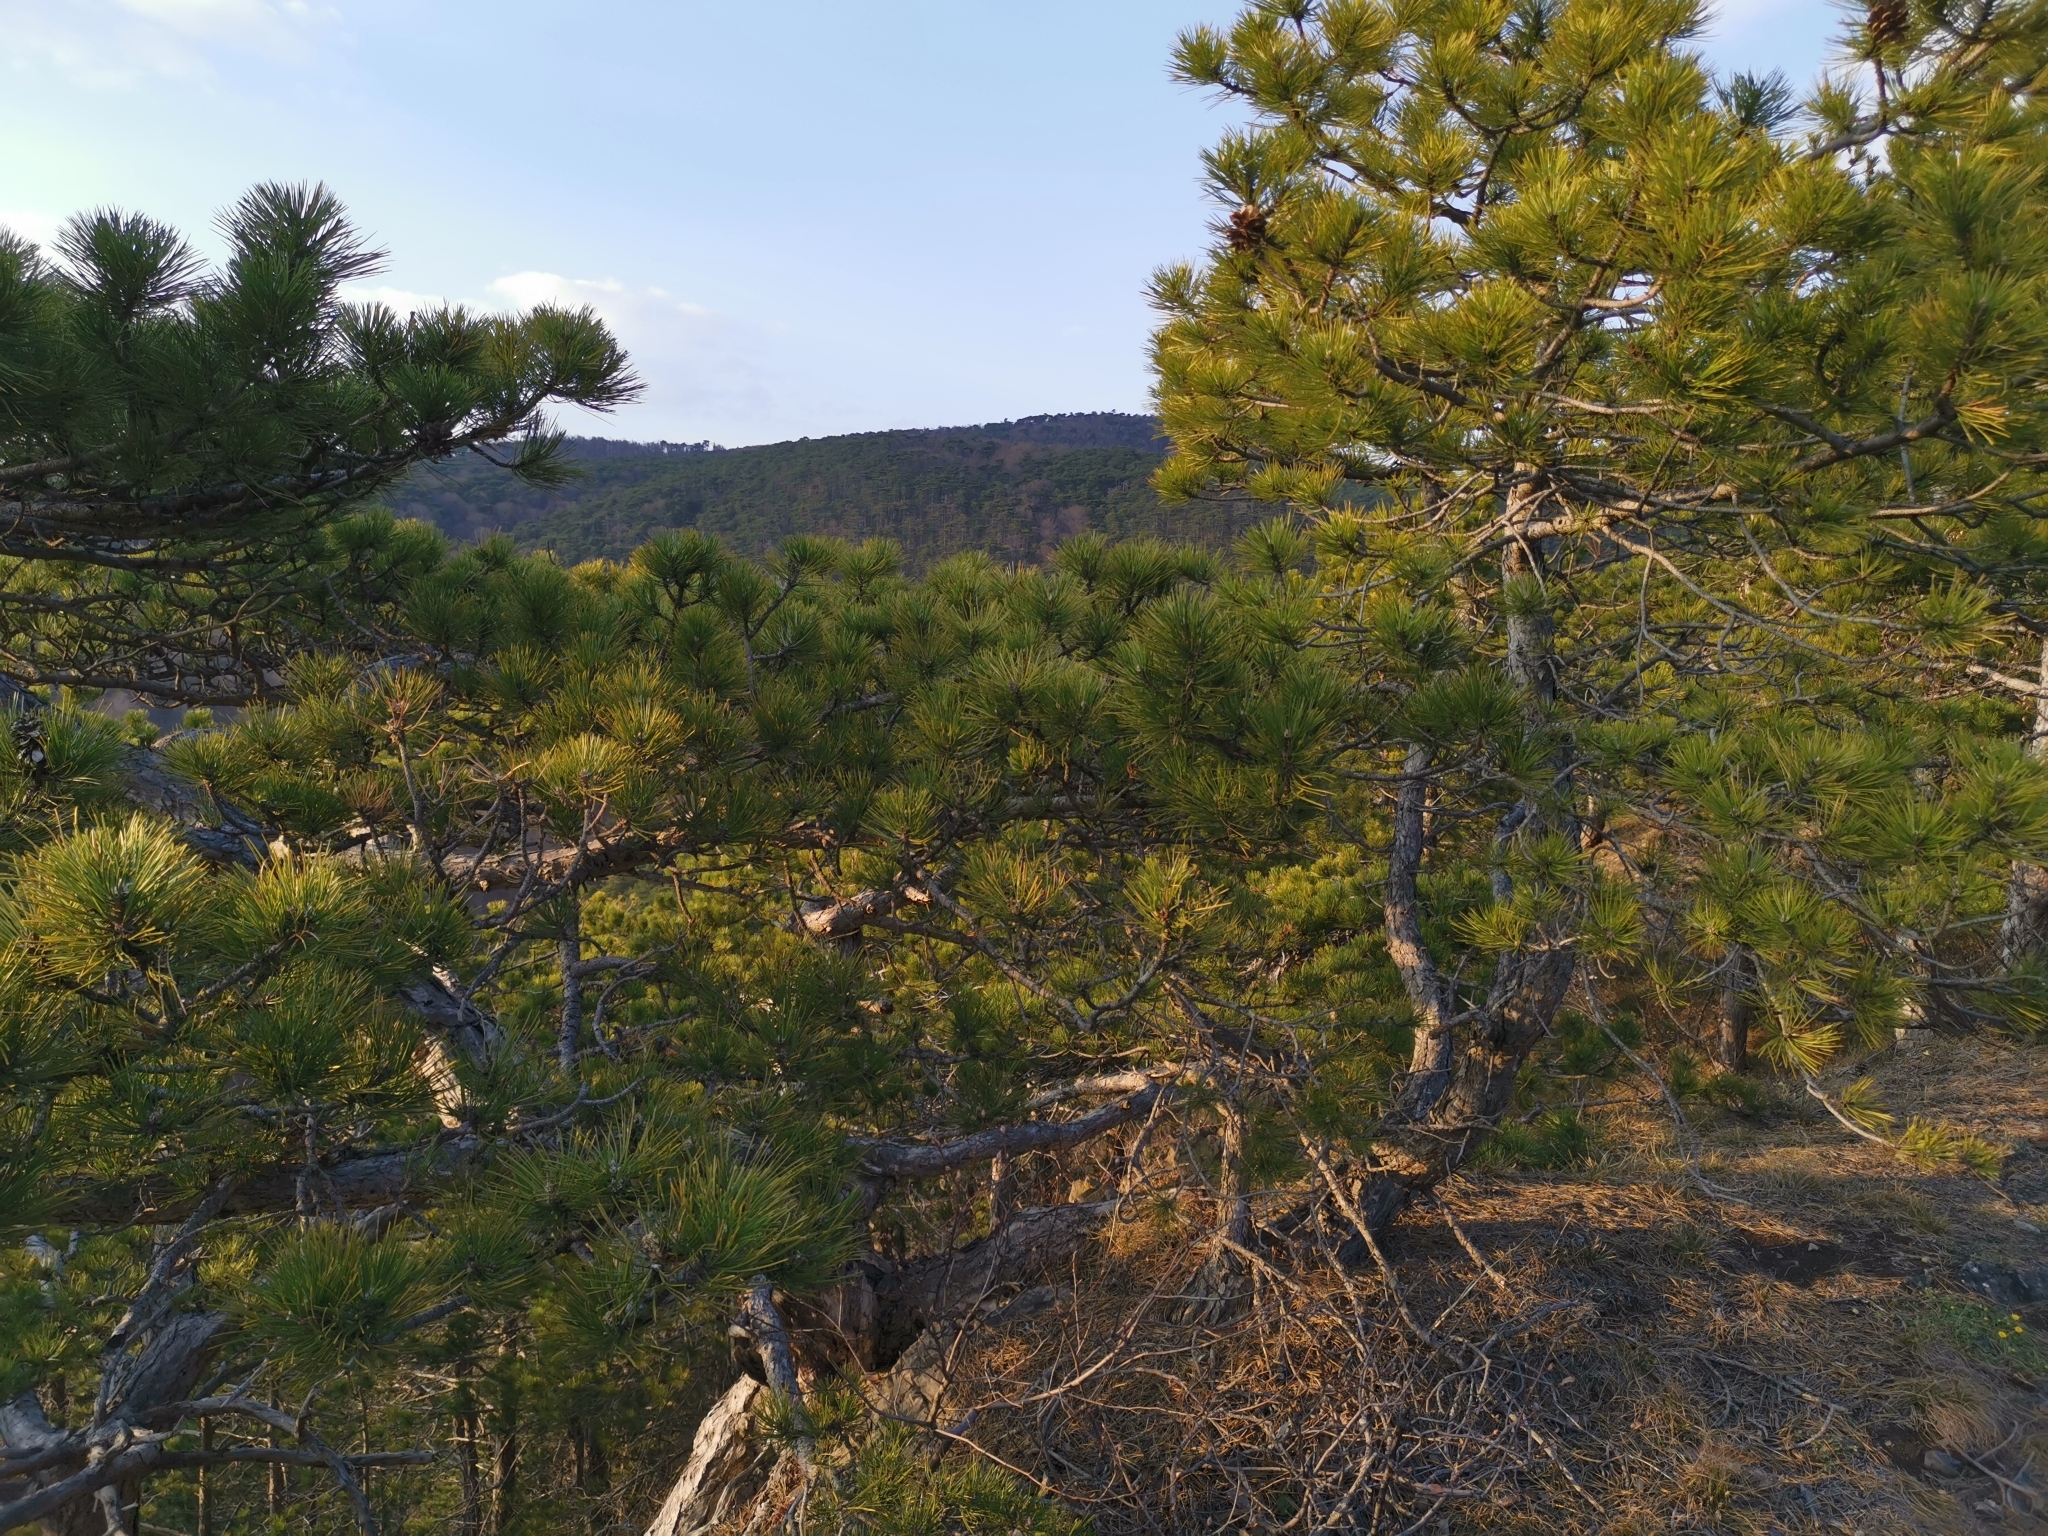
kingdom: Plantae
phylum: Tracheophyta
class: Pinopsida
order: Pinales
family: Pinaceae
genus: Pinus
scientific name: Pinus nigra
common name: Austrian pine
